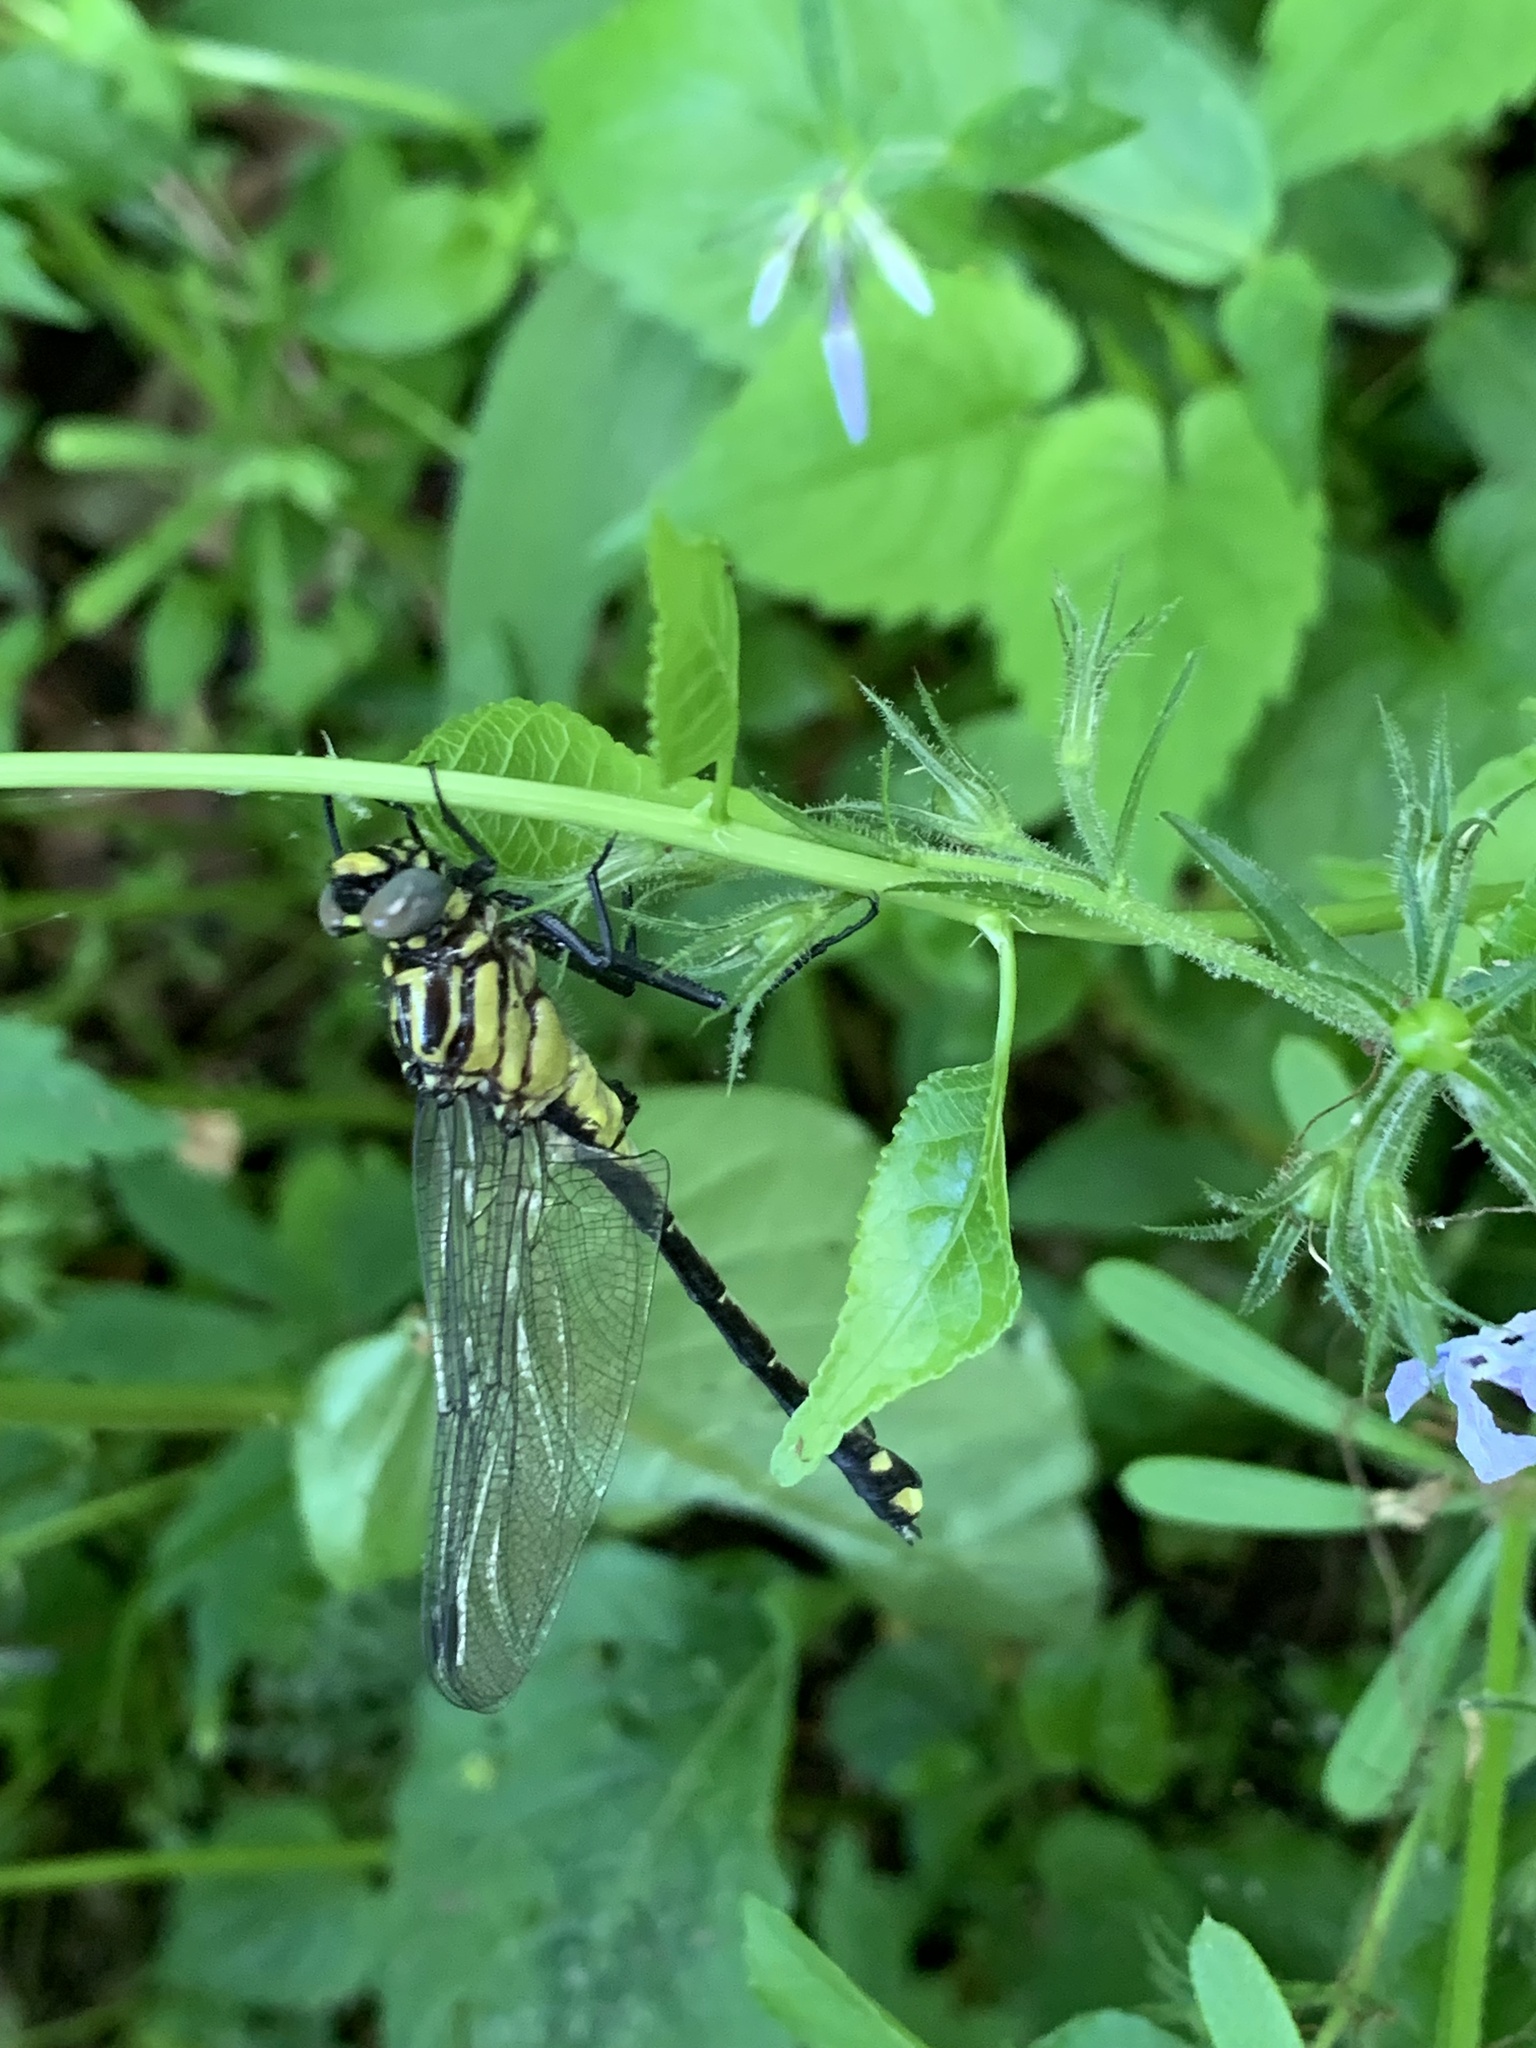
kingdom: Animalia
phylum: Arthropoda
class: Insecta
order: Odonata
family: Gomphidae
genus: Gomphurus
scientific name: Gomphurus vastus
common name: Cobra clubtail
